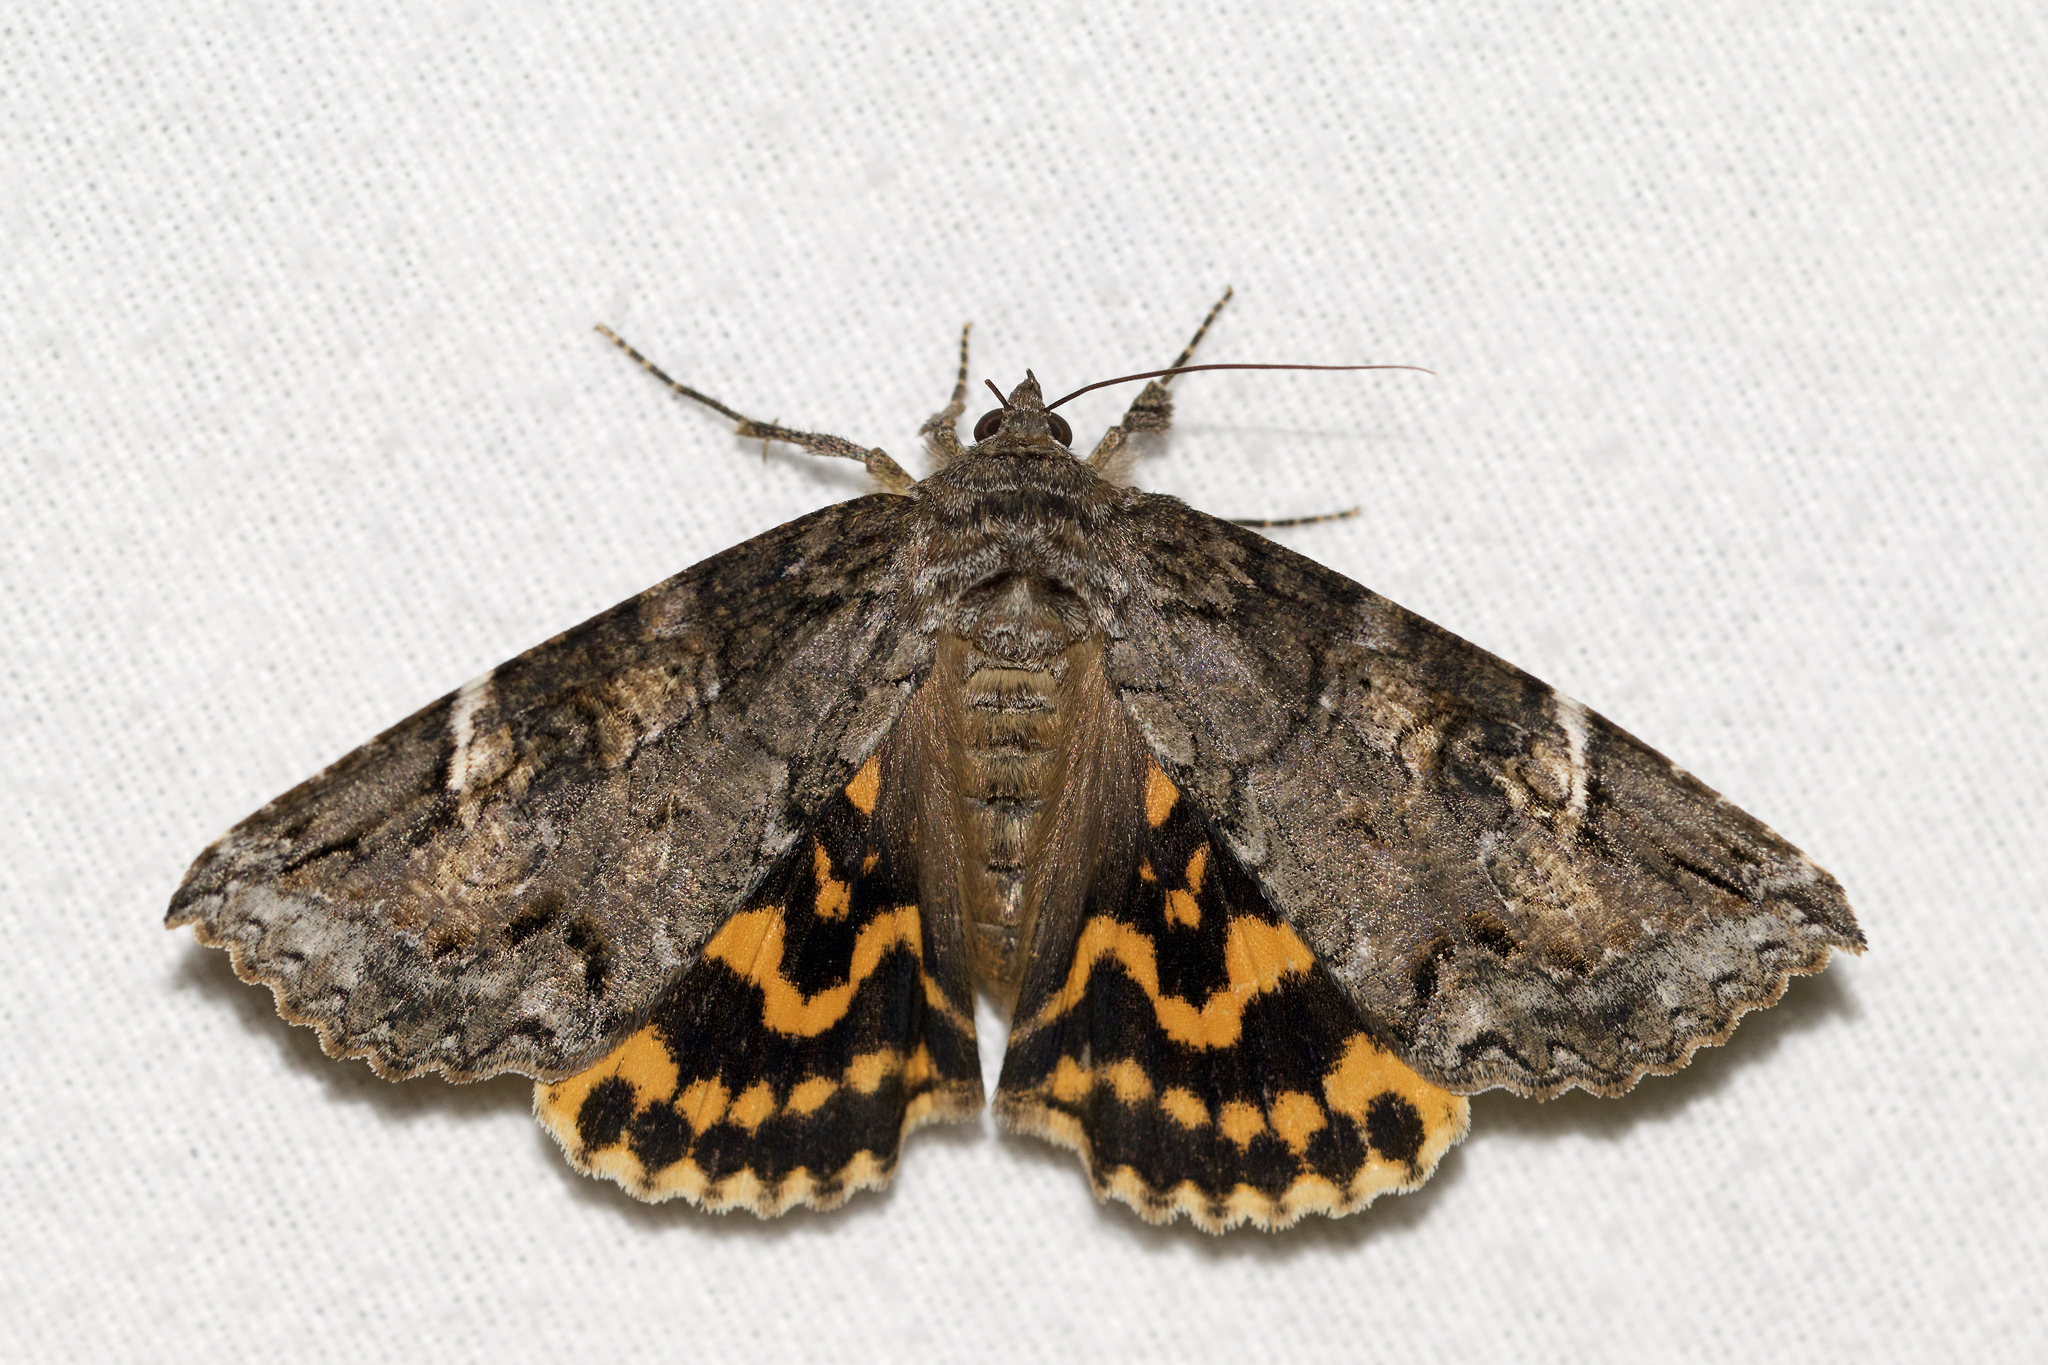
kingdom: Animalia
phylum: Arthropoda
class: Insecta
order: Lepidoptera
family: Erebidae
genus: Euparthenos
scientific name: Euparthenos nubilis
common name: Locust underwing
